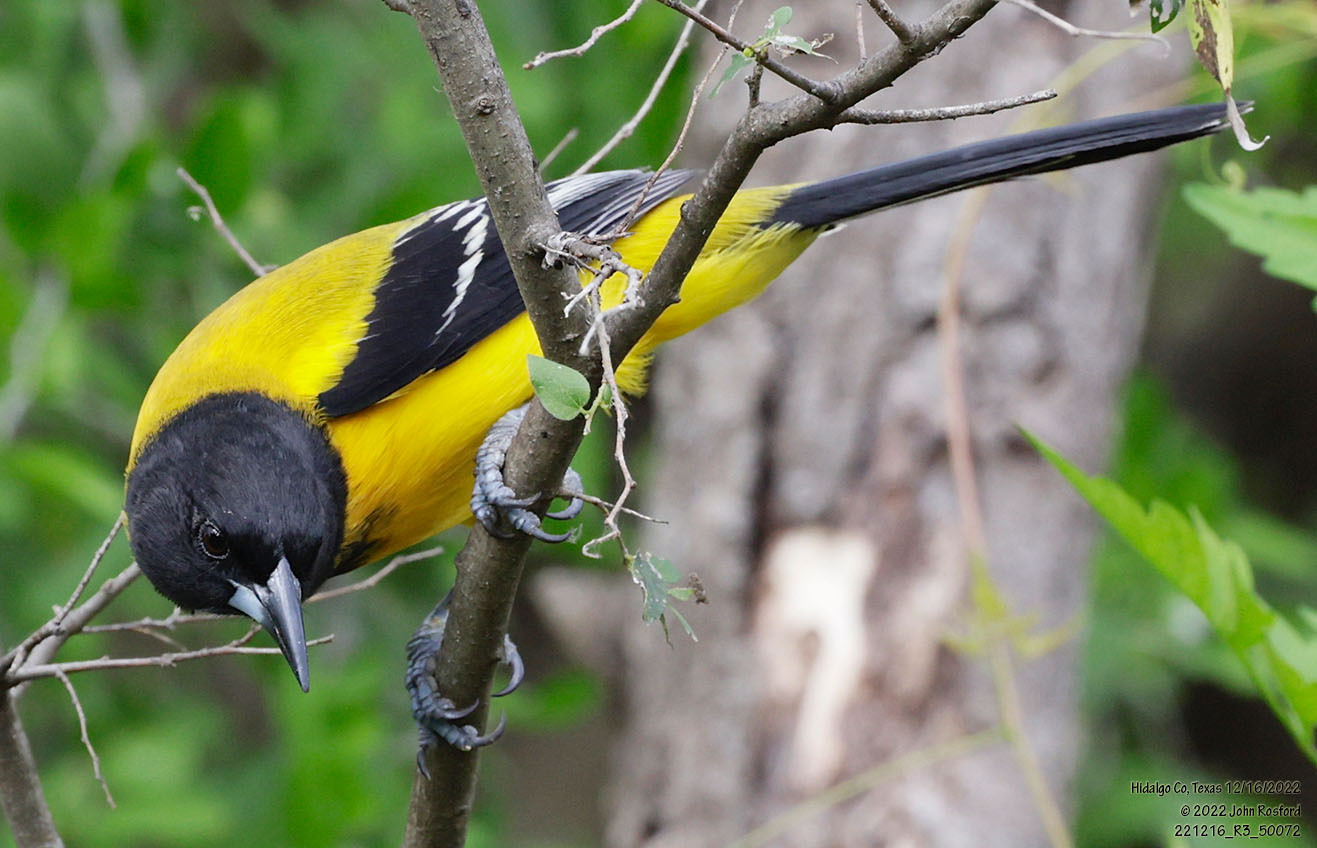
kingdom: Animalia
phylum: Chordata
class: Aves
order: Passeriformes
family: Icteridae
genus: Icterus
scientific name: Icterus graduacauda
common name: Audubon's oriole
